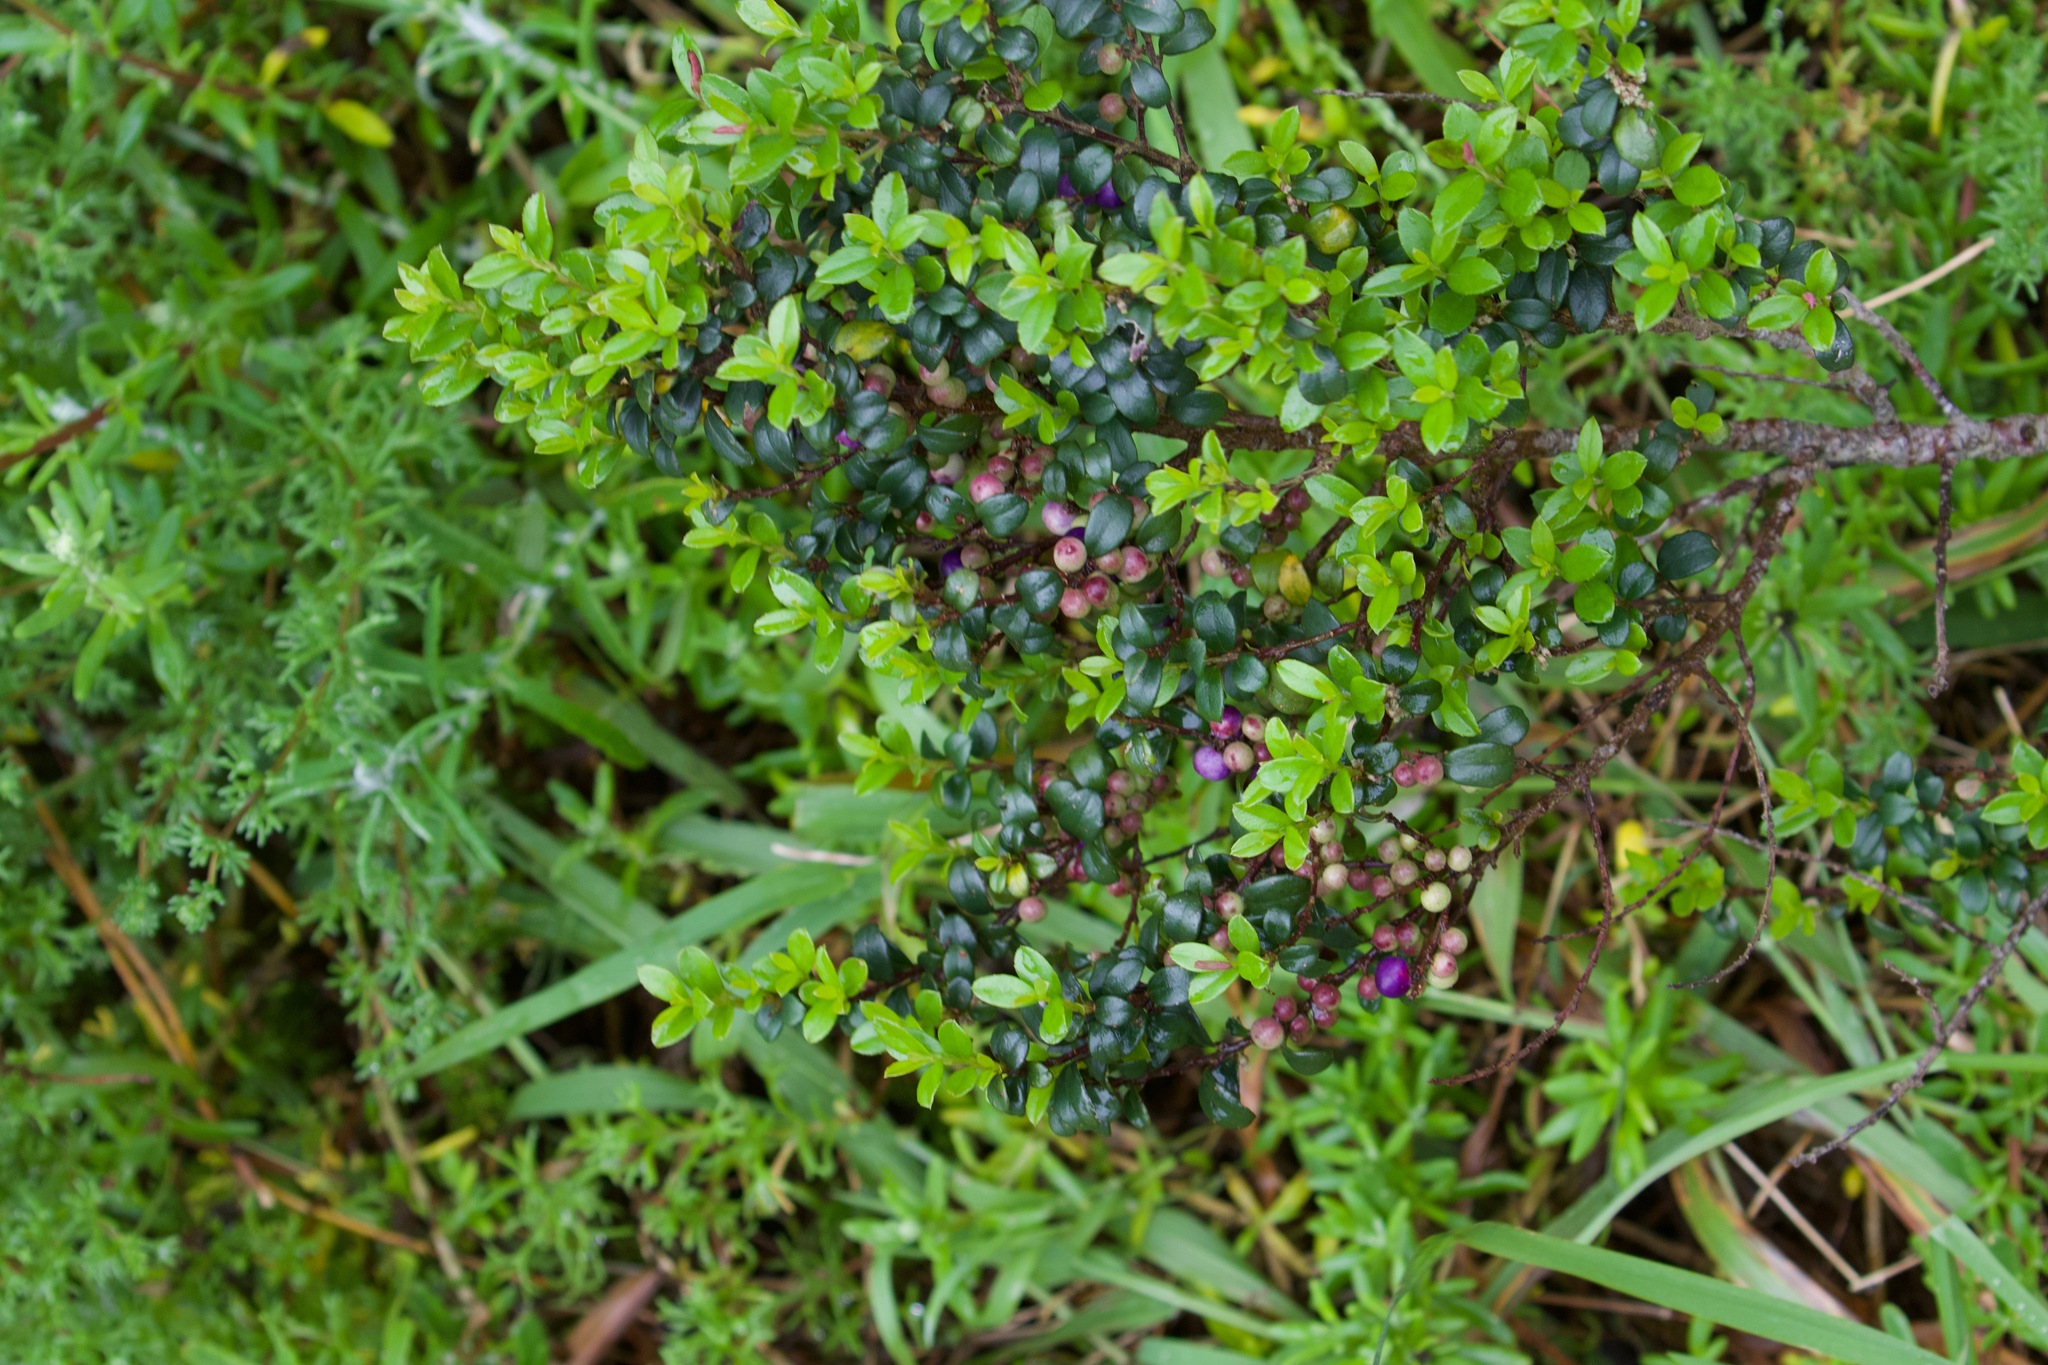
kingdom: Plantae
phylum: Tracheophyta
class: Magnoliopsida
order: Ericales
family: Primulaceae
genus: Myrsine
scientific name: Myrsine africana
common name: African-boxwood
